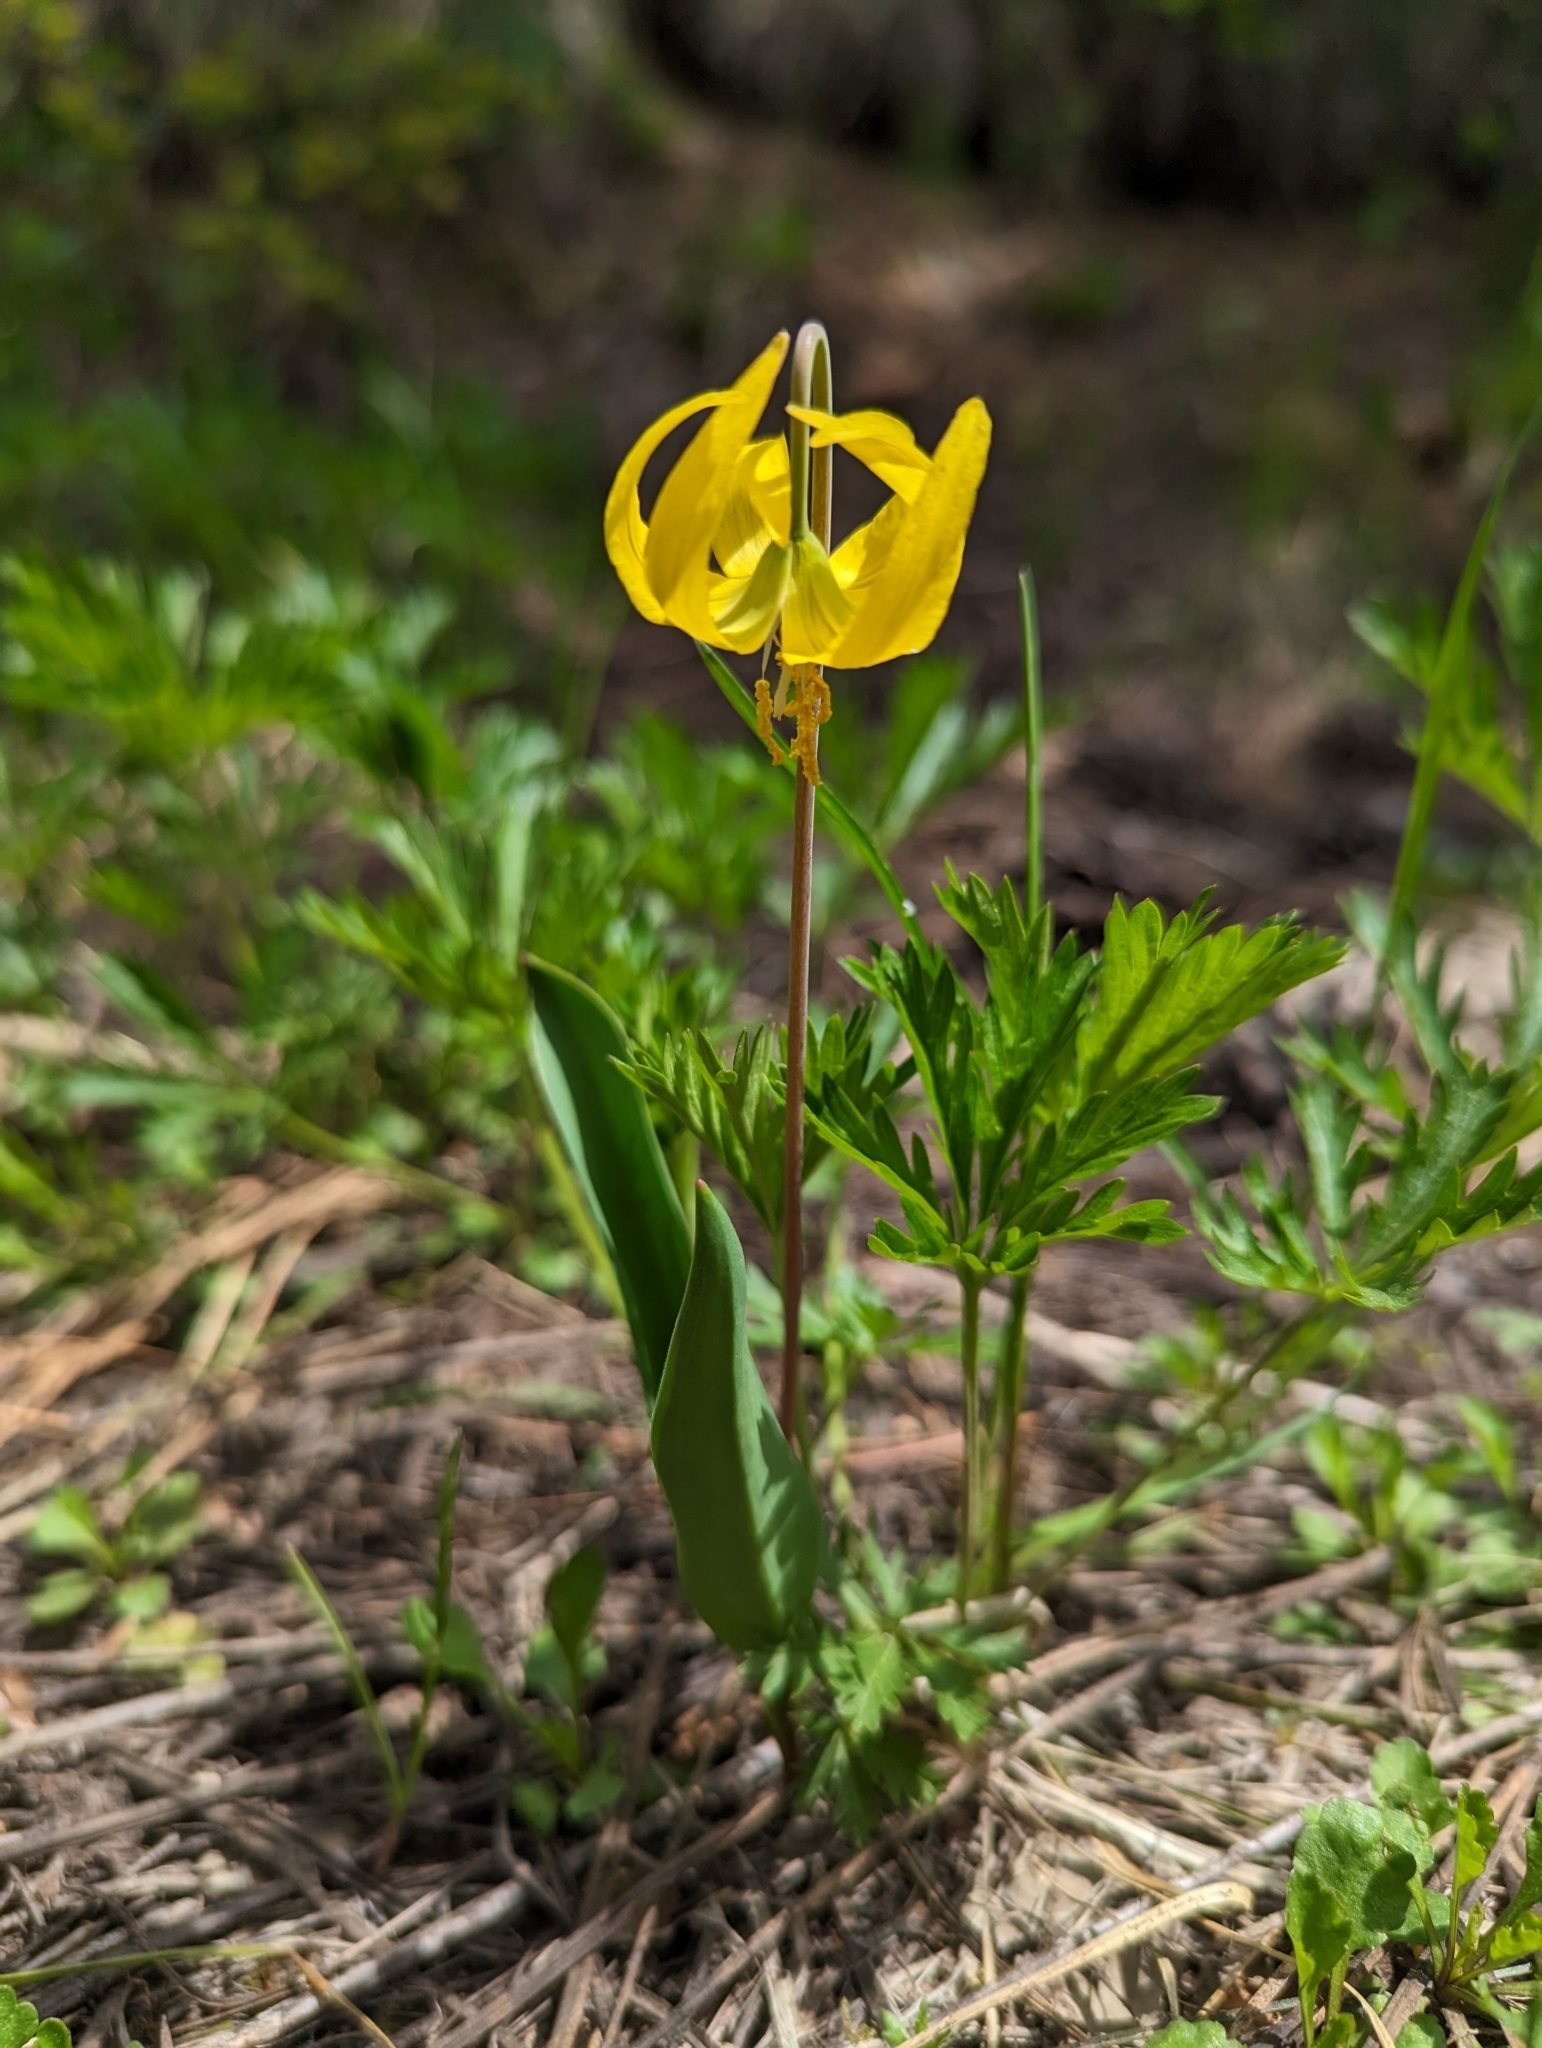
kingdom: Plantae
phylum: Tracheophyta
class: Liliopsida
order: Liliales
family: Liliaceae
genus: Erythronium
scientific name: Erythronium grandiflorum
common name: Avalanche-lily
